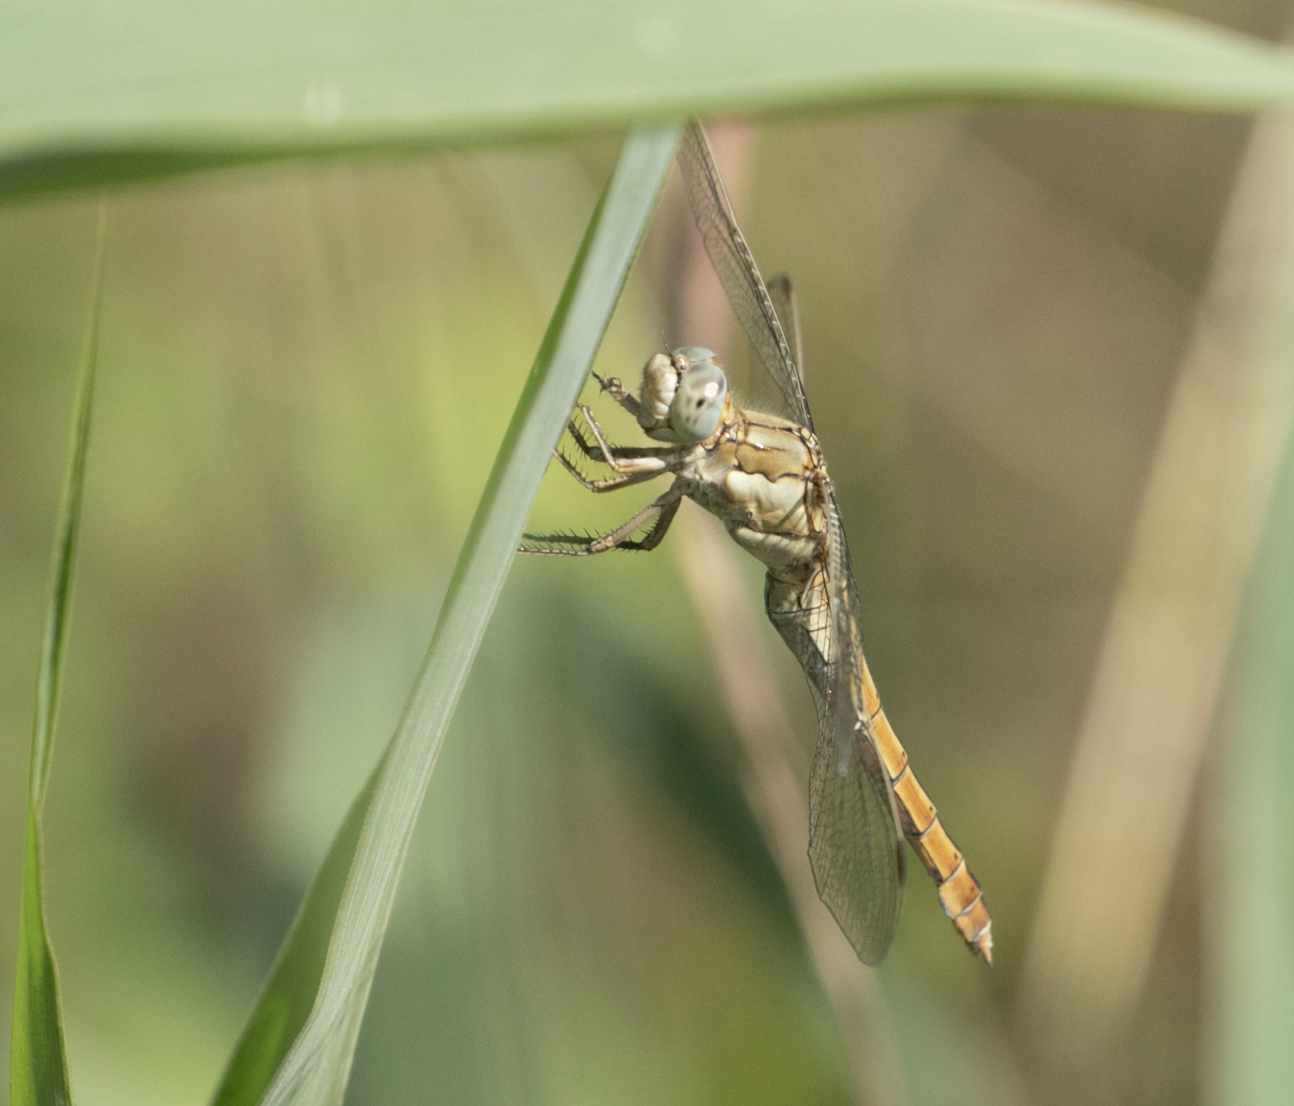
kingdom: Animalia
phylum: Arthropoda
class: Insecta
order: Odonata
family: Libellulidae
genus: Orthetrum
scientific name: Orthetrum brunneum
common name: Southern skimmer
